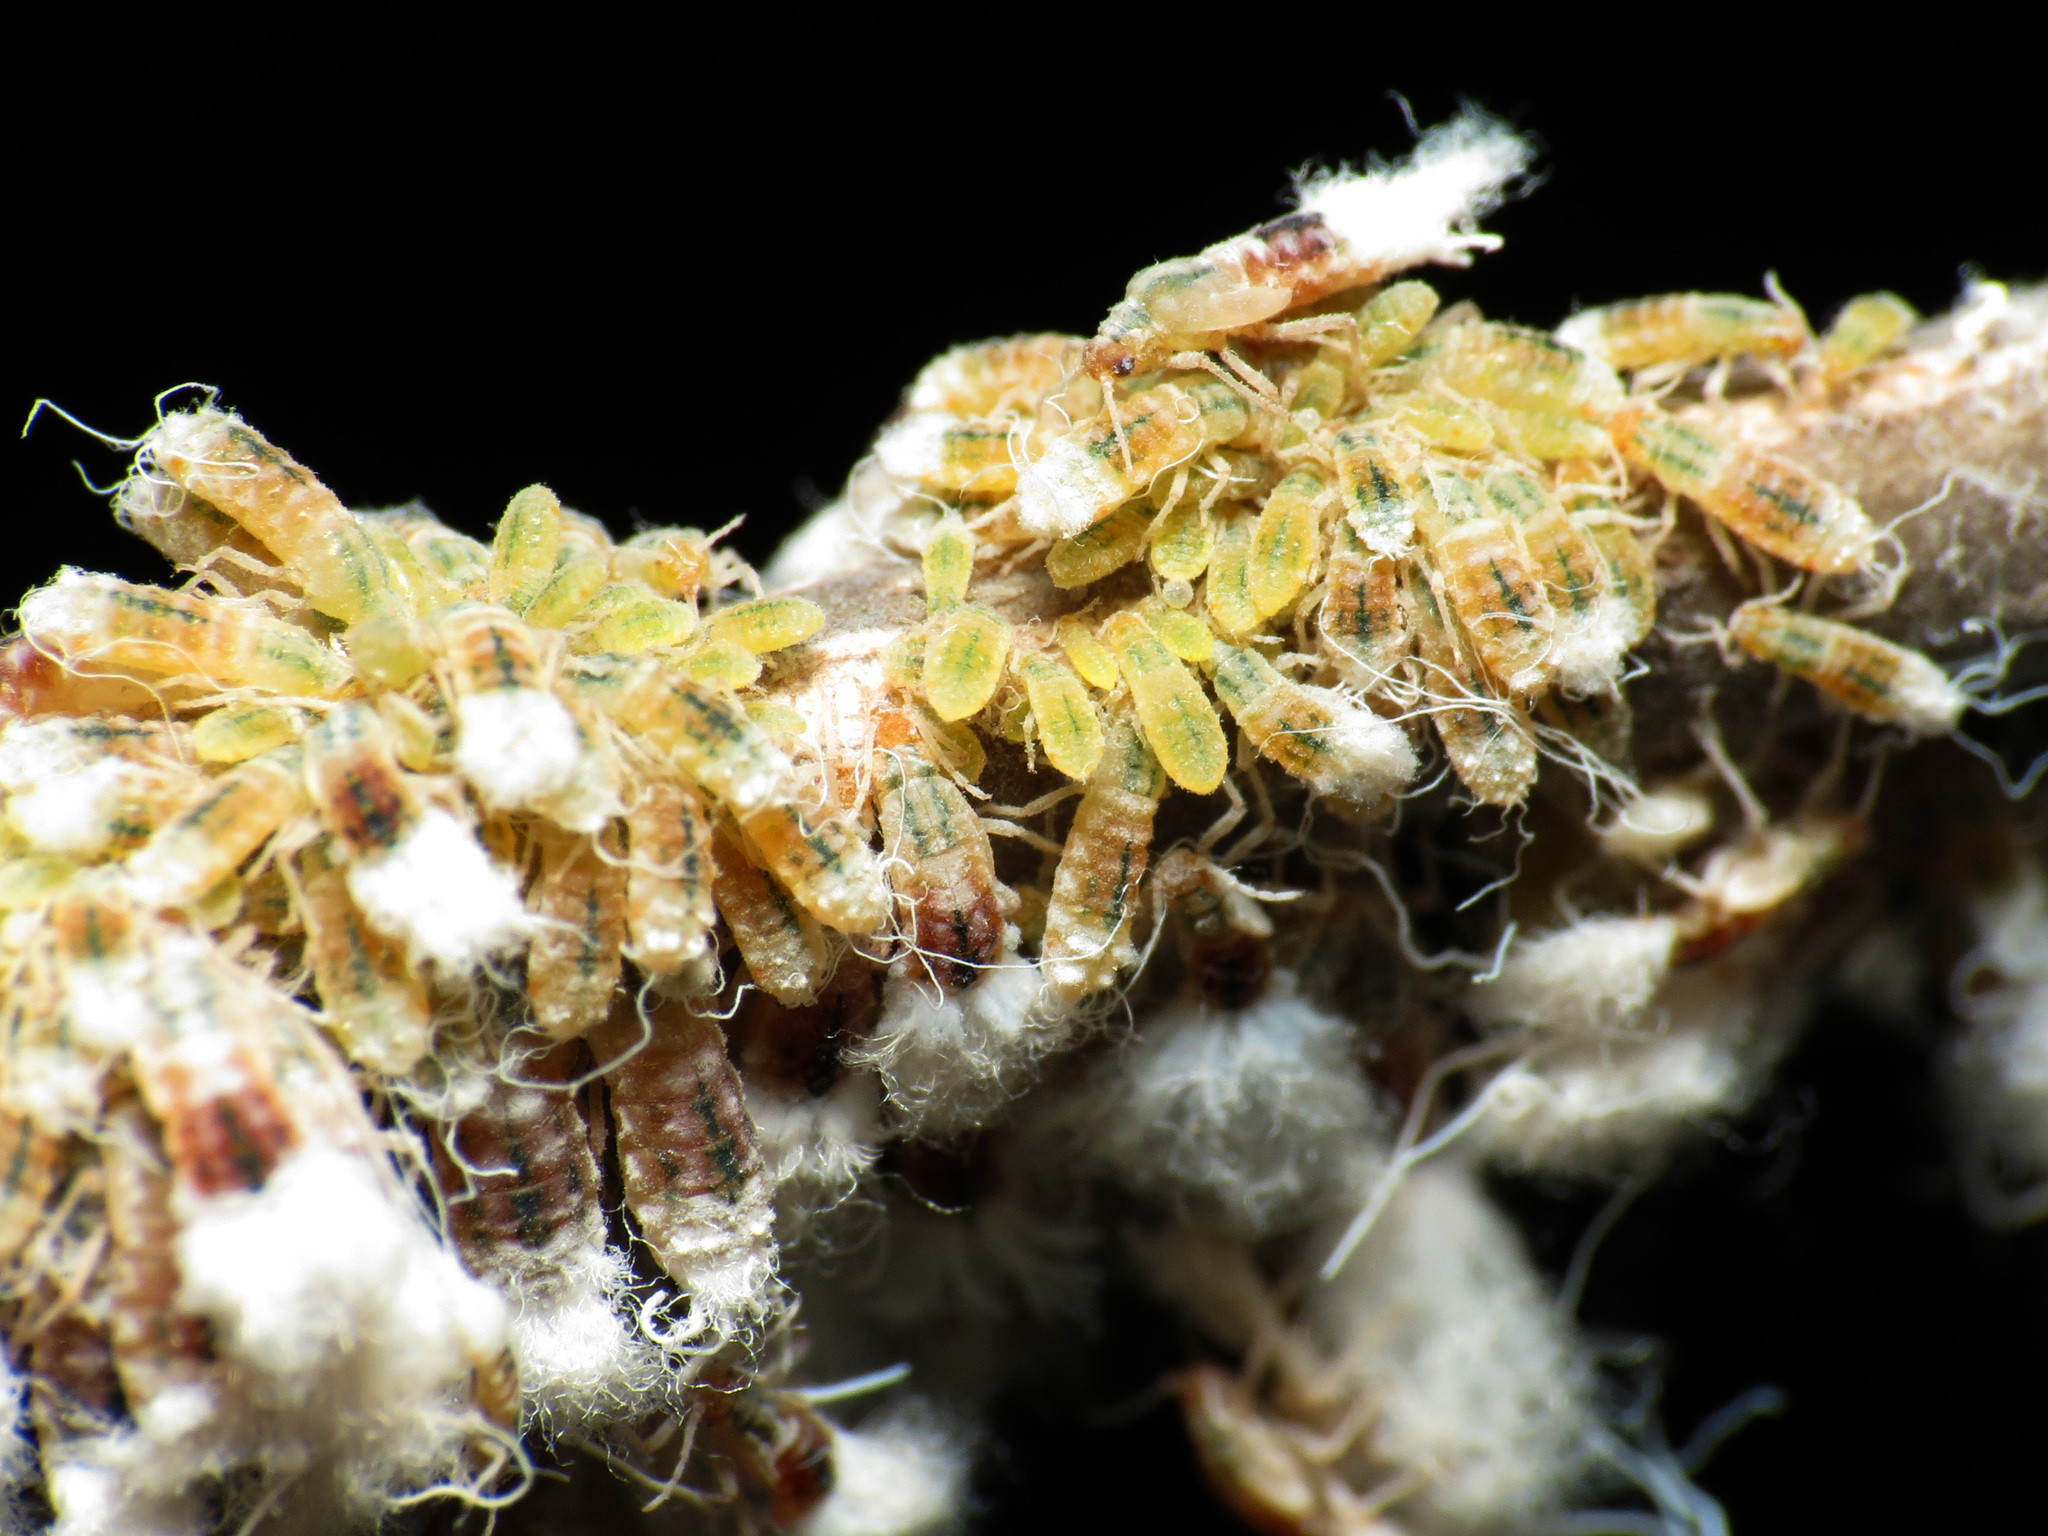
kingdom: Animalia
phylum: Arthropoda
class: Insecta
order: Hemiptera
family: Aphididae
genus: Grylloprociphilus
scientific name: Grylloprociphilus imbricator
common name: Beech blight aphid
